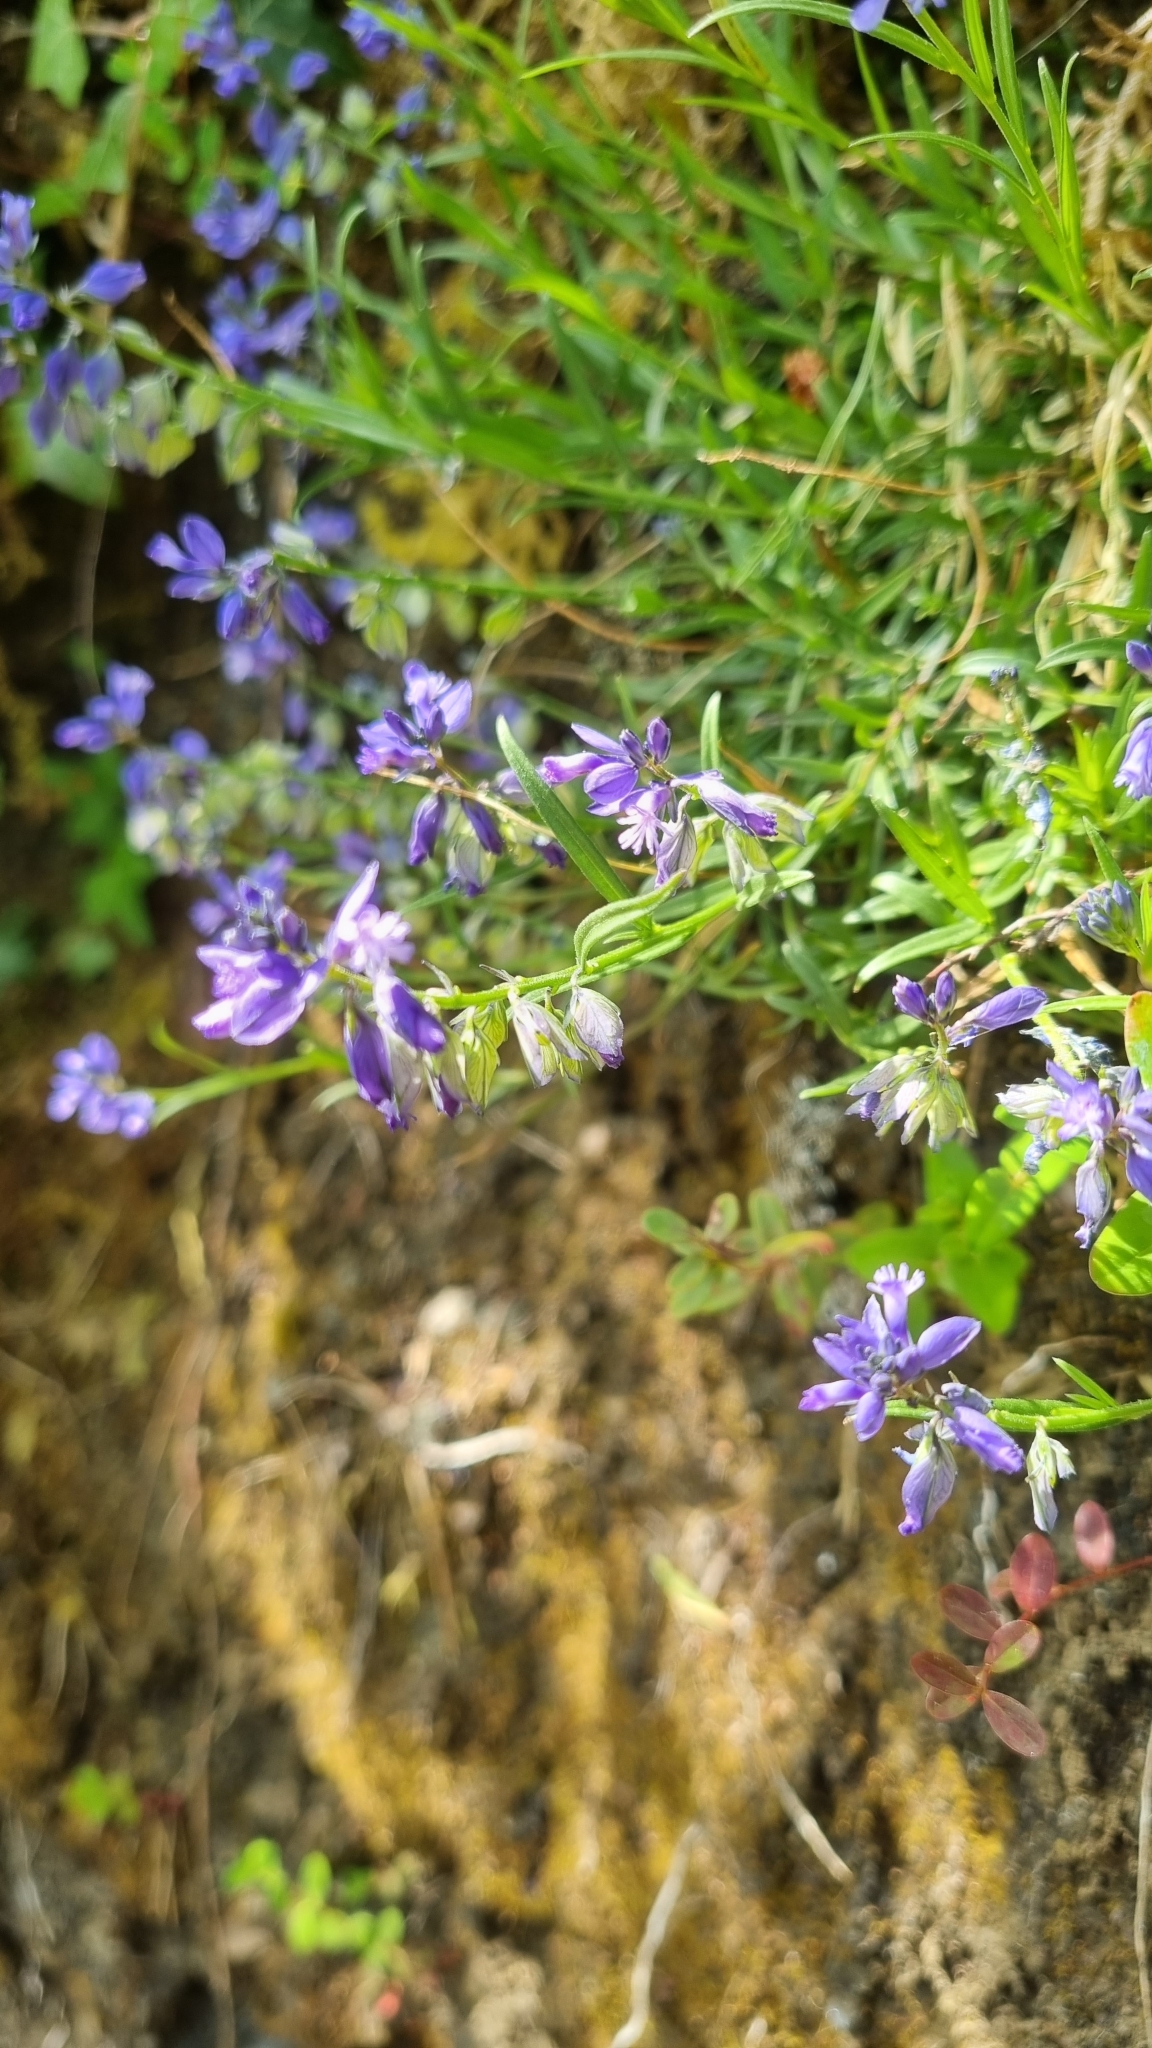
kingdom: Plantae
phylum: Tracheophyta
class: Magnoliopsida
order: Fabales
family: Polygalaceae
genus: Polygala
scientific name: Polygala vulgaris
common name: Common milkwort
